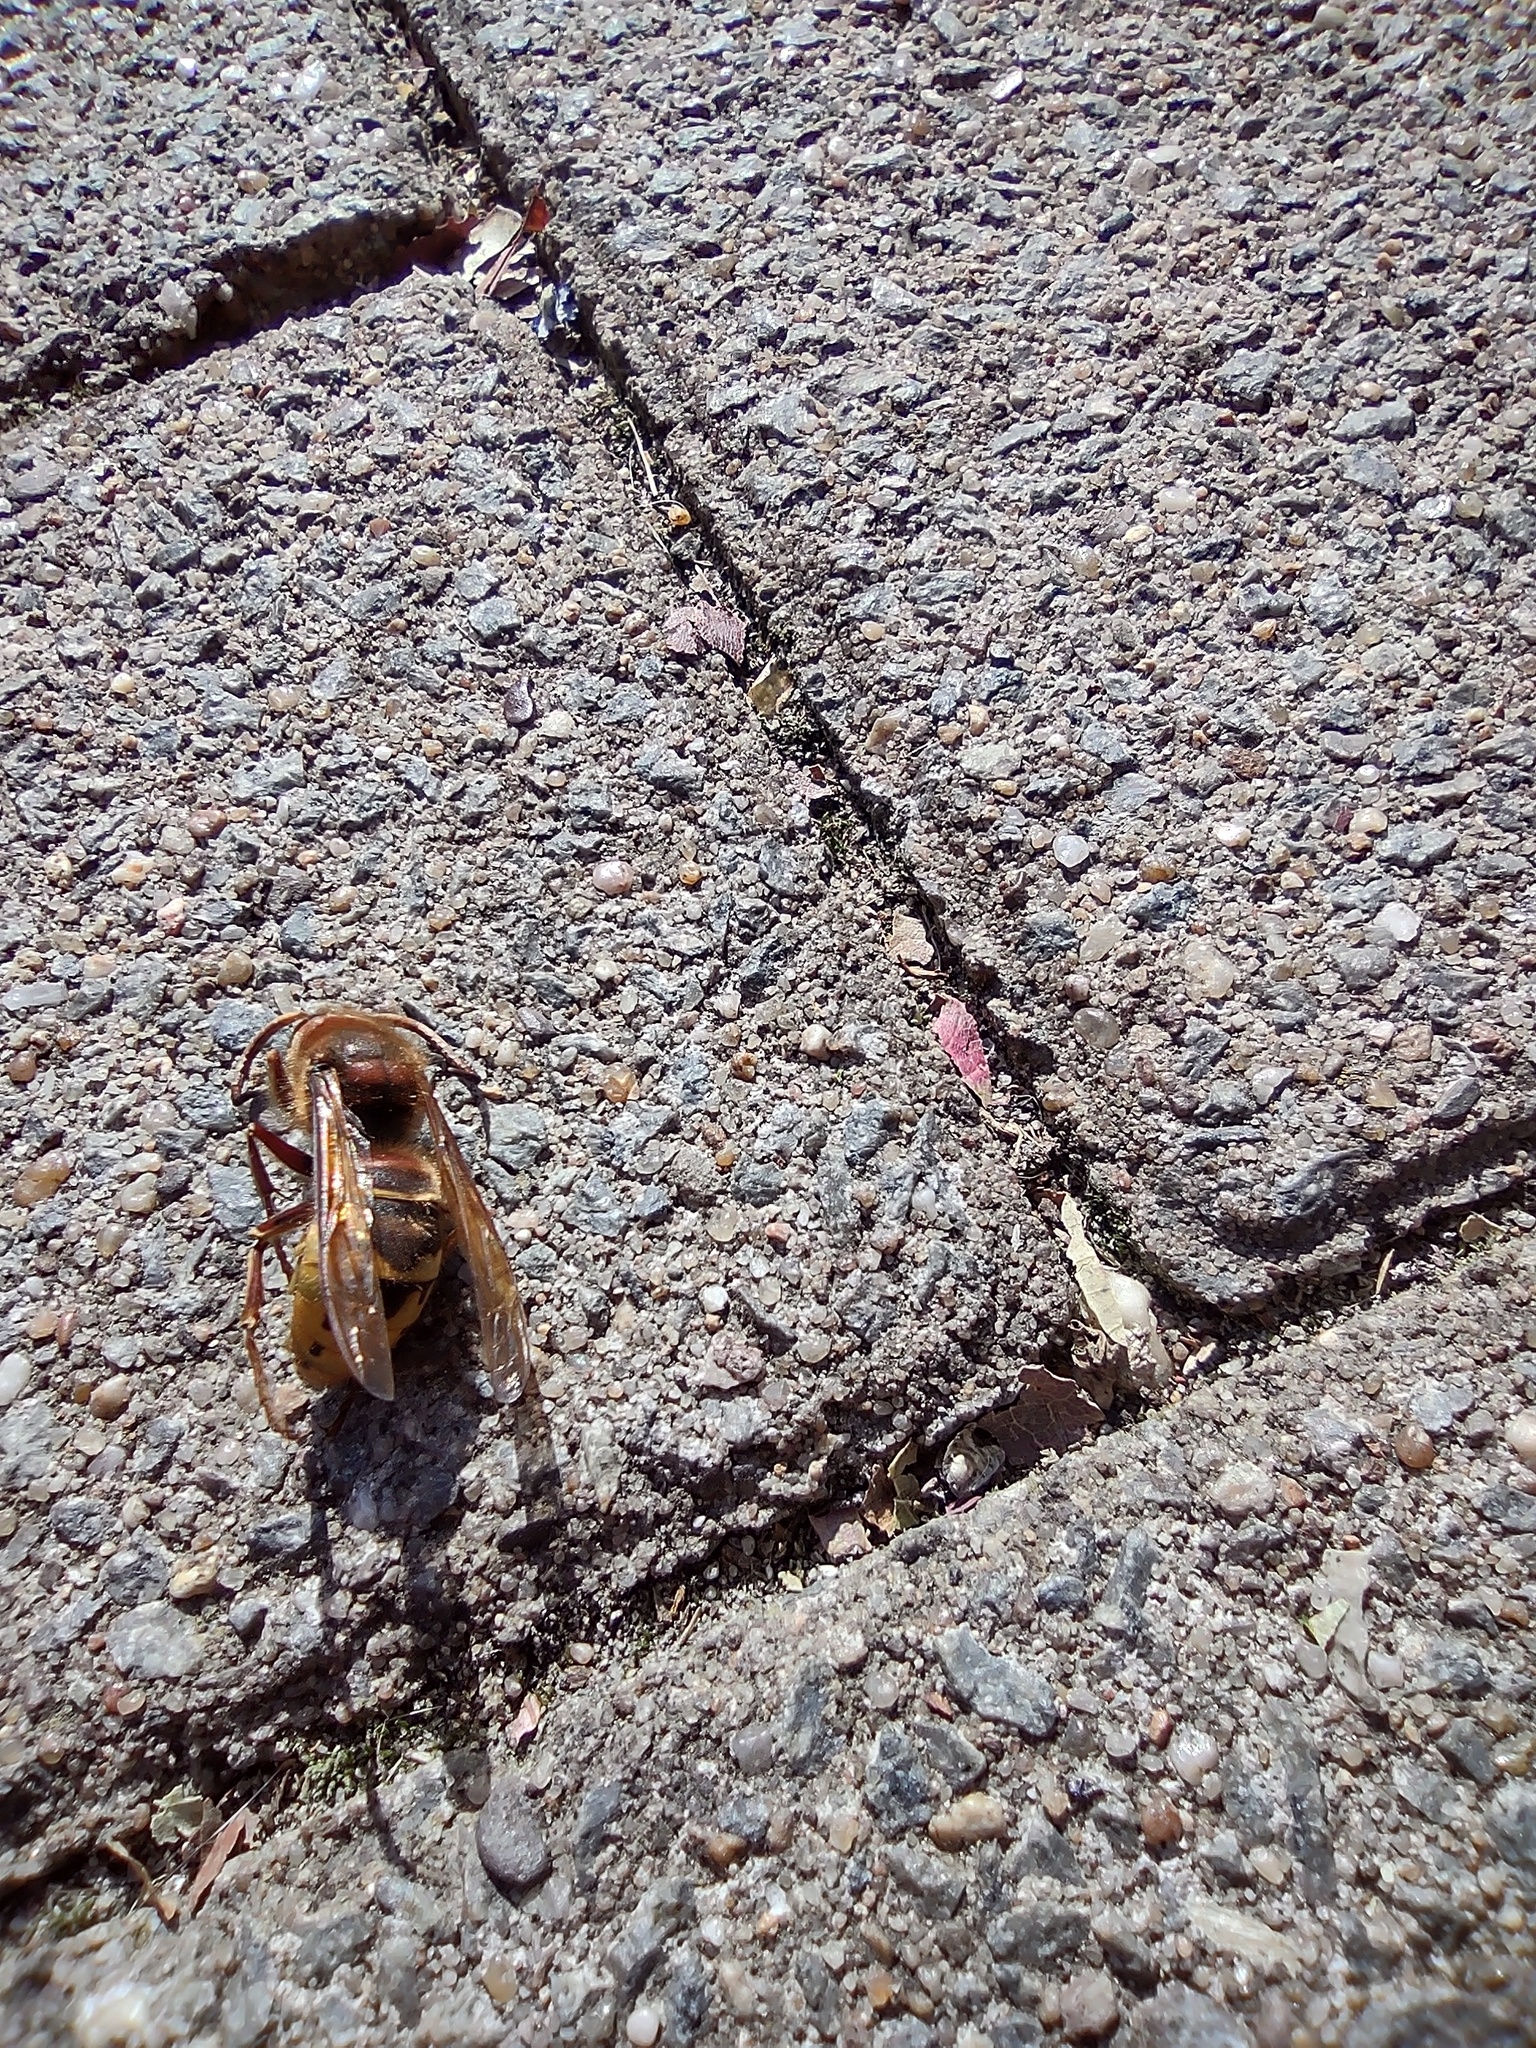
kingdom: Animalia
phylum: Arthropoda
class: Insecta
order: Hymenoptera
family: Vespidae
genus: Vespa
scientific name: Vespa crabro
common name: Hornet
